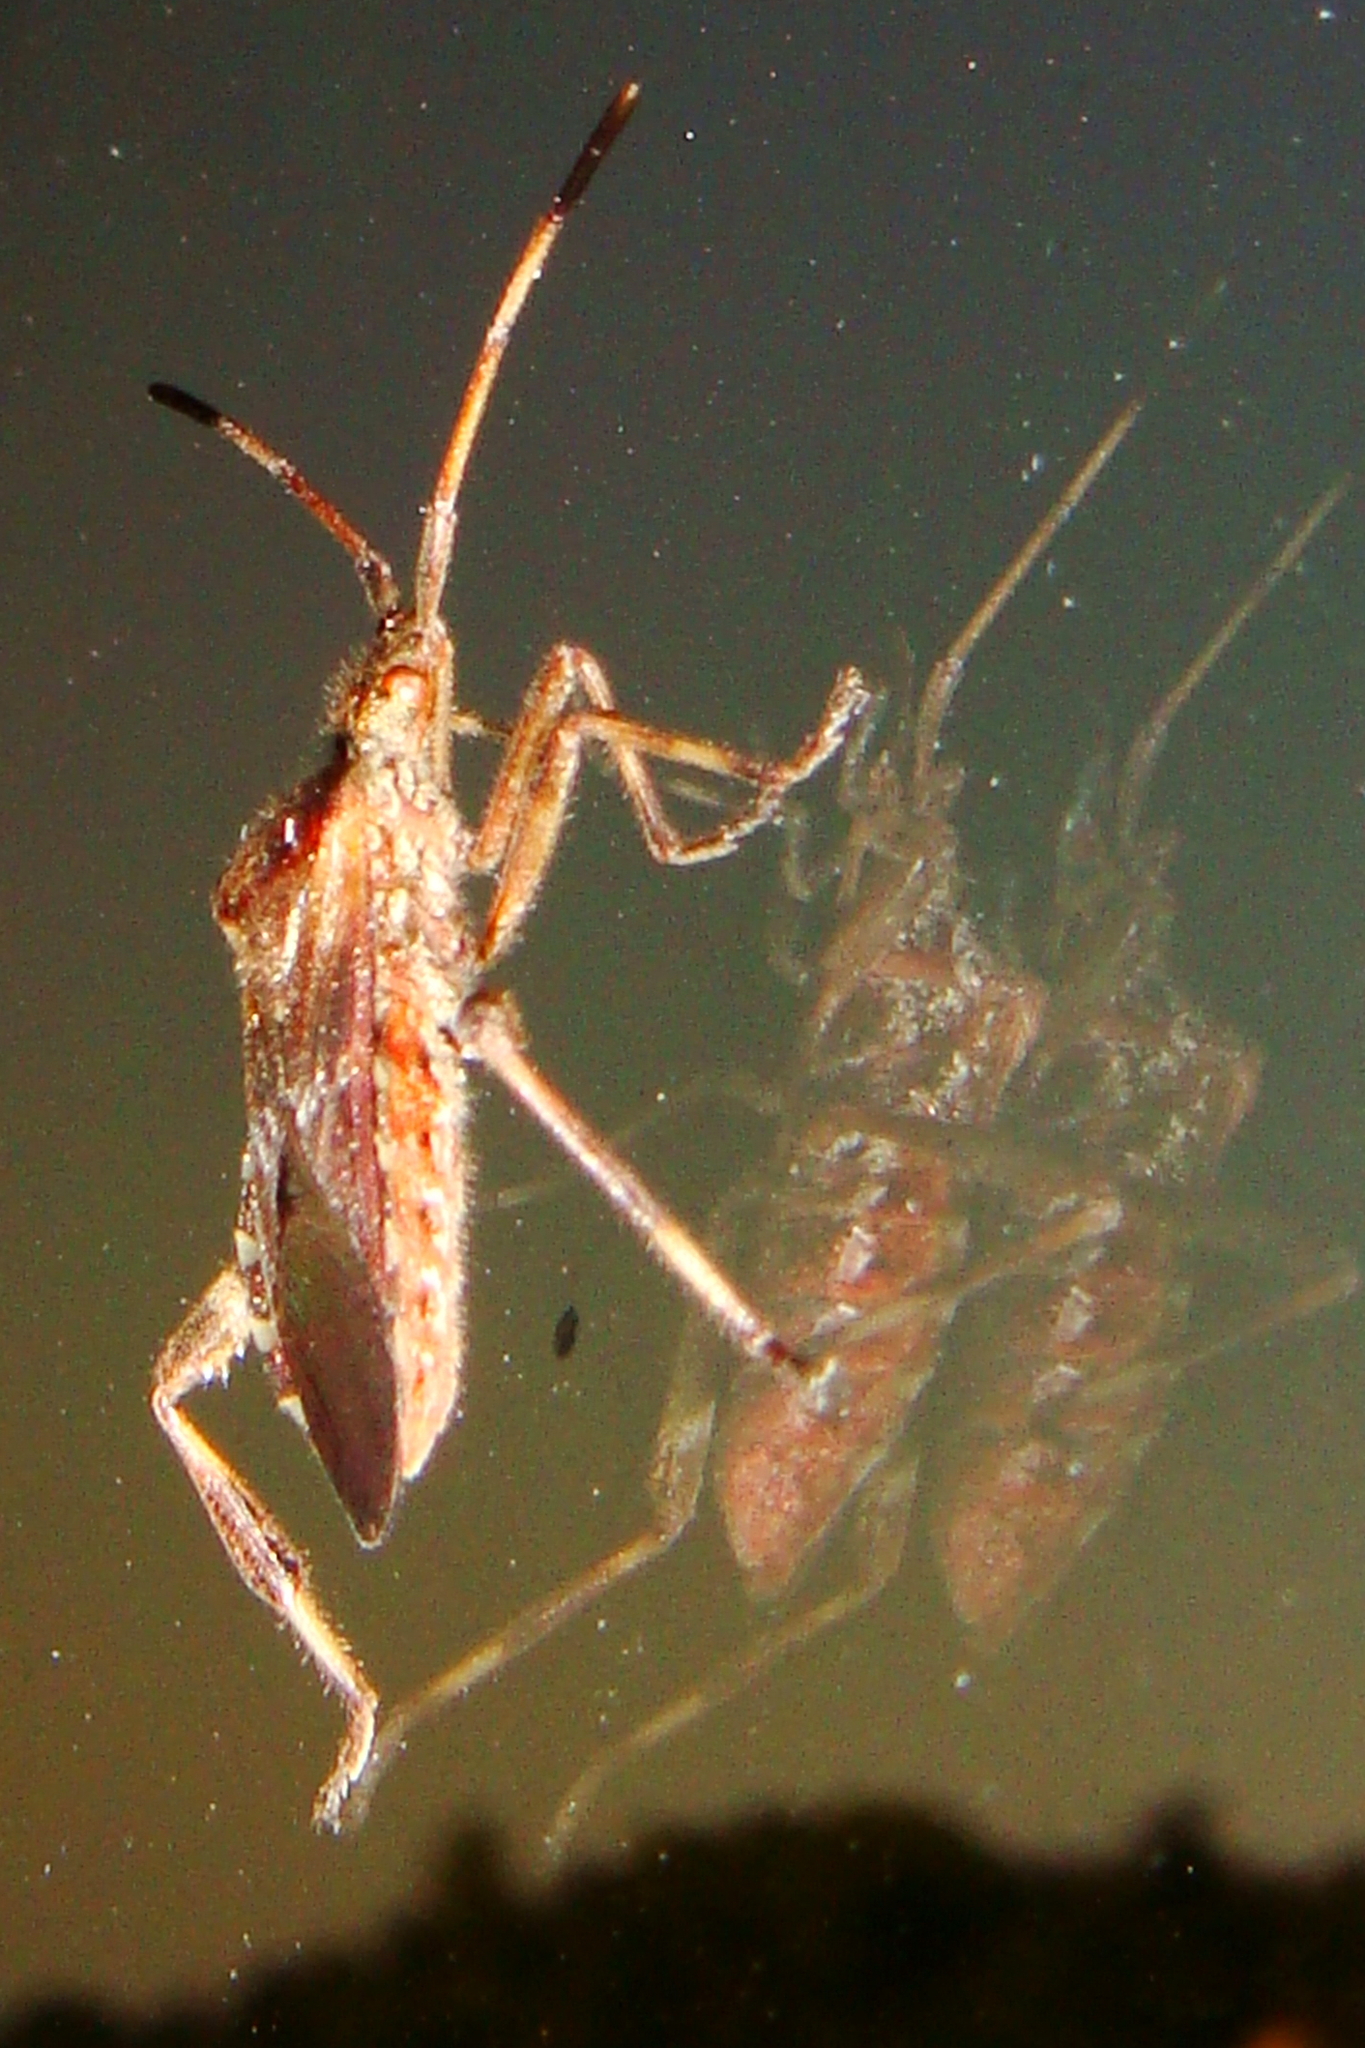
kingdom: Animalia
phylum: Arthropoda
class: Insecta
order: Hemiptera
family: Coreidae
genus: Leptoglossus
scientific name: Leptoglossus occidentalis
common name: Western conifer-seed bug
